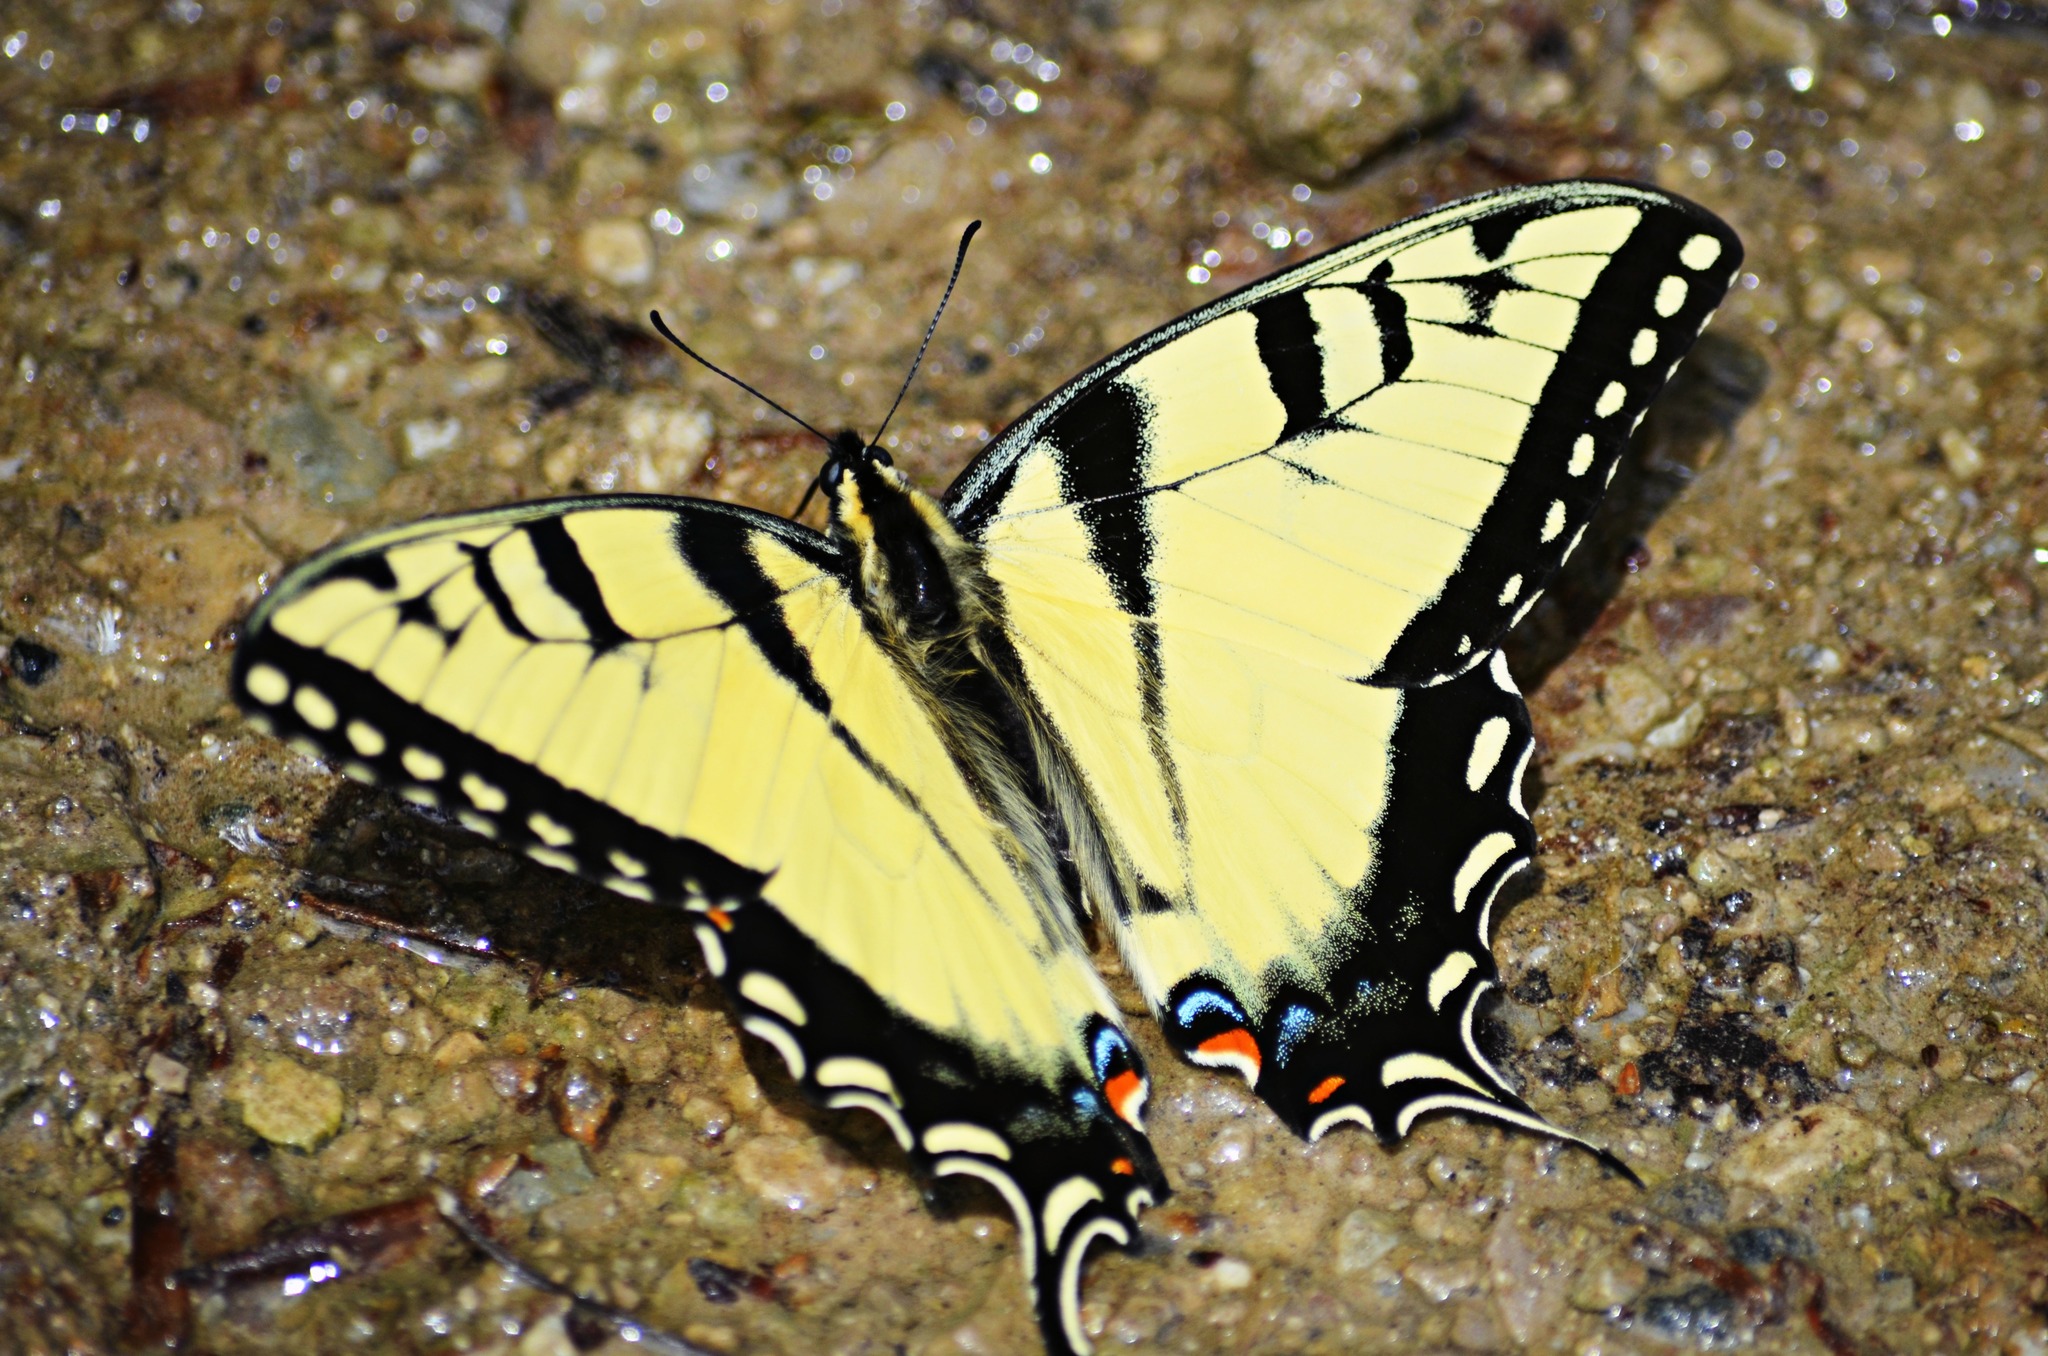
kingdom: Animalia
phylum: Arthropoda
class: Insecta
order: Lepidoptera
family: Papilionidae
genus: Papilio
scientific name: Papilio glaucus
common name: Tiger swallowtail
